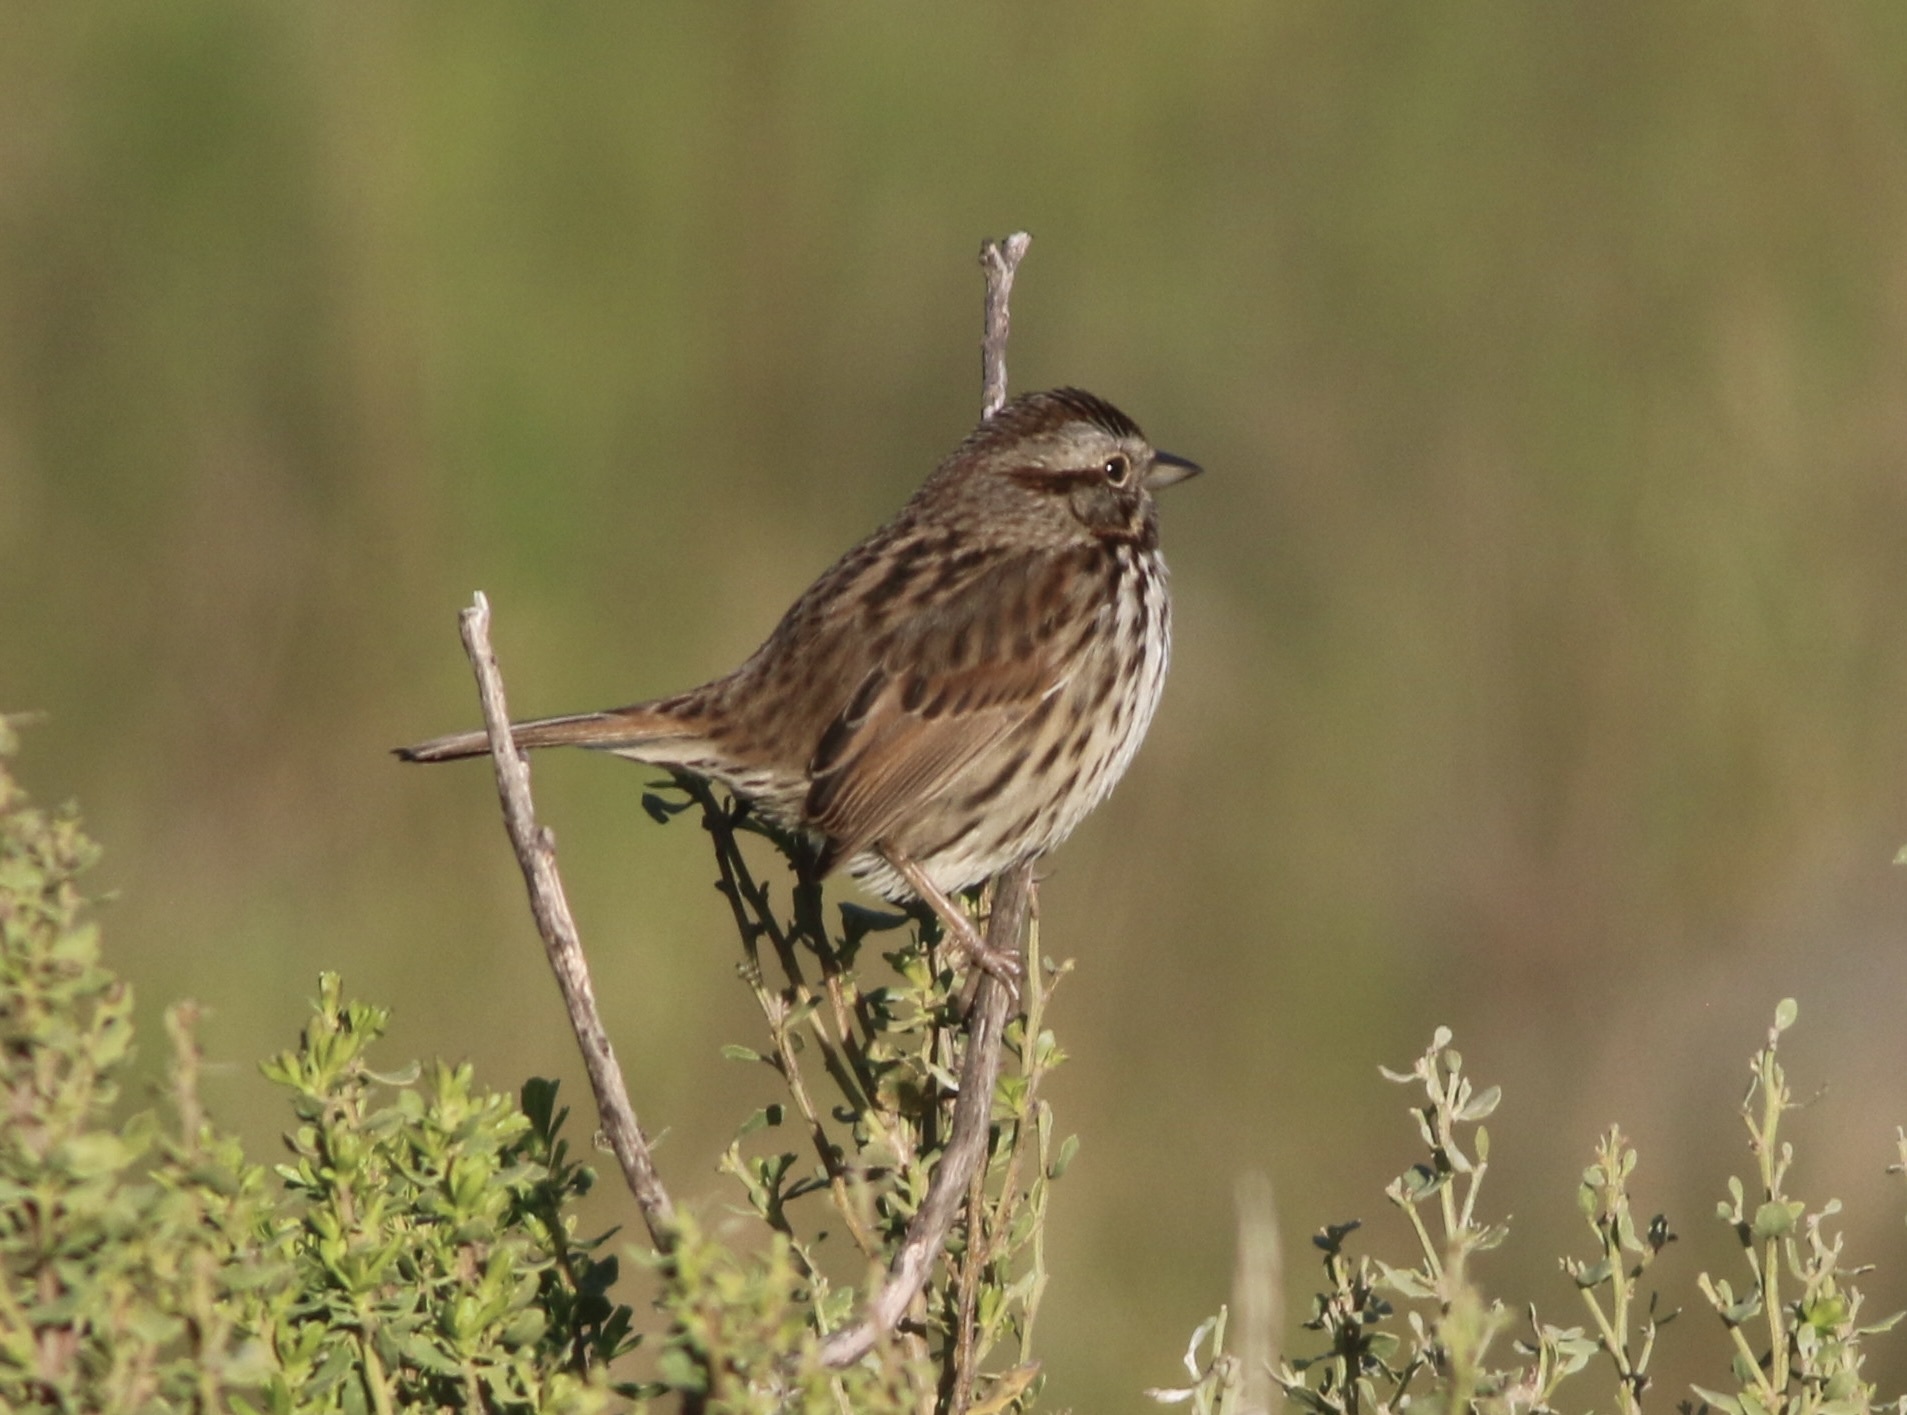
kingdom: Animalia
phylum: Chordata
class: Aves
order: Passeriformes
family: Passerellidae
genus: Melospiza
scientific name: Melospiza melodia
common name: Song sparrow
